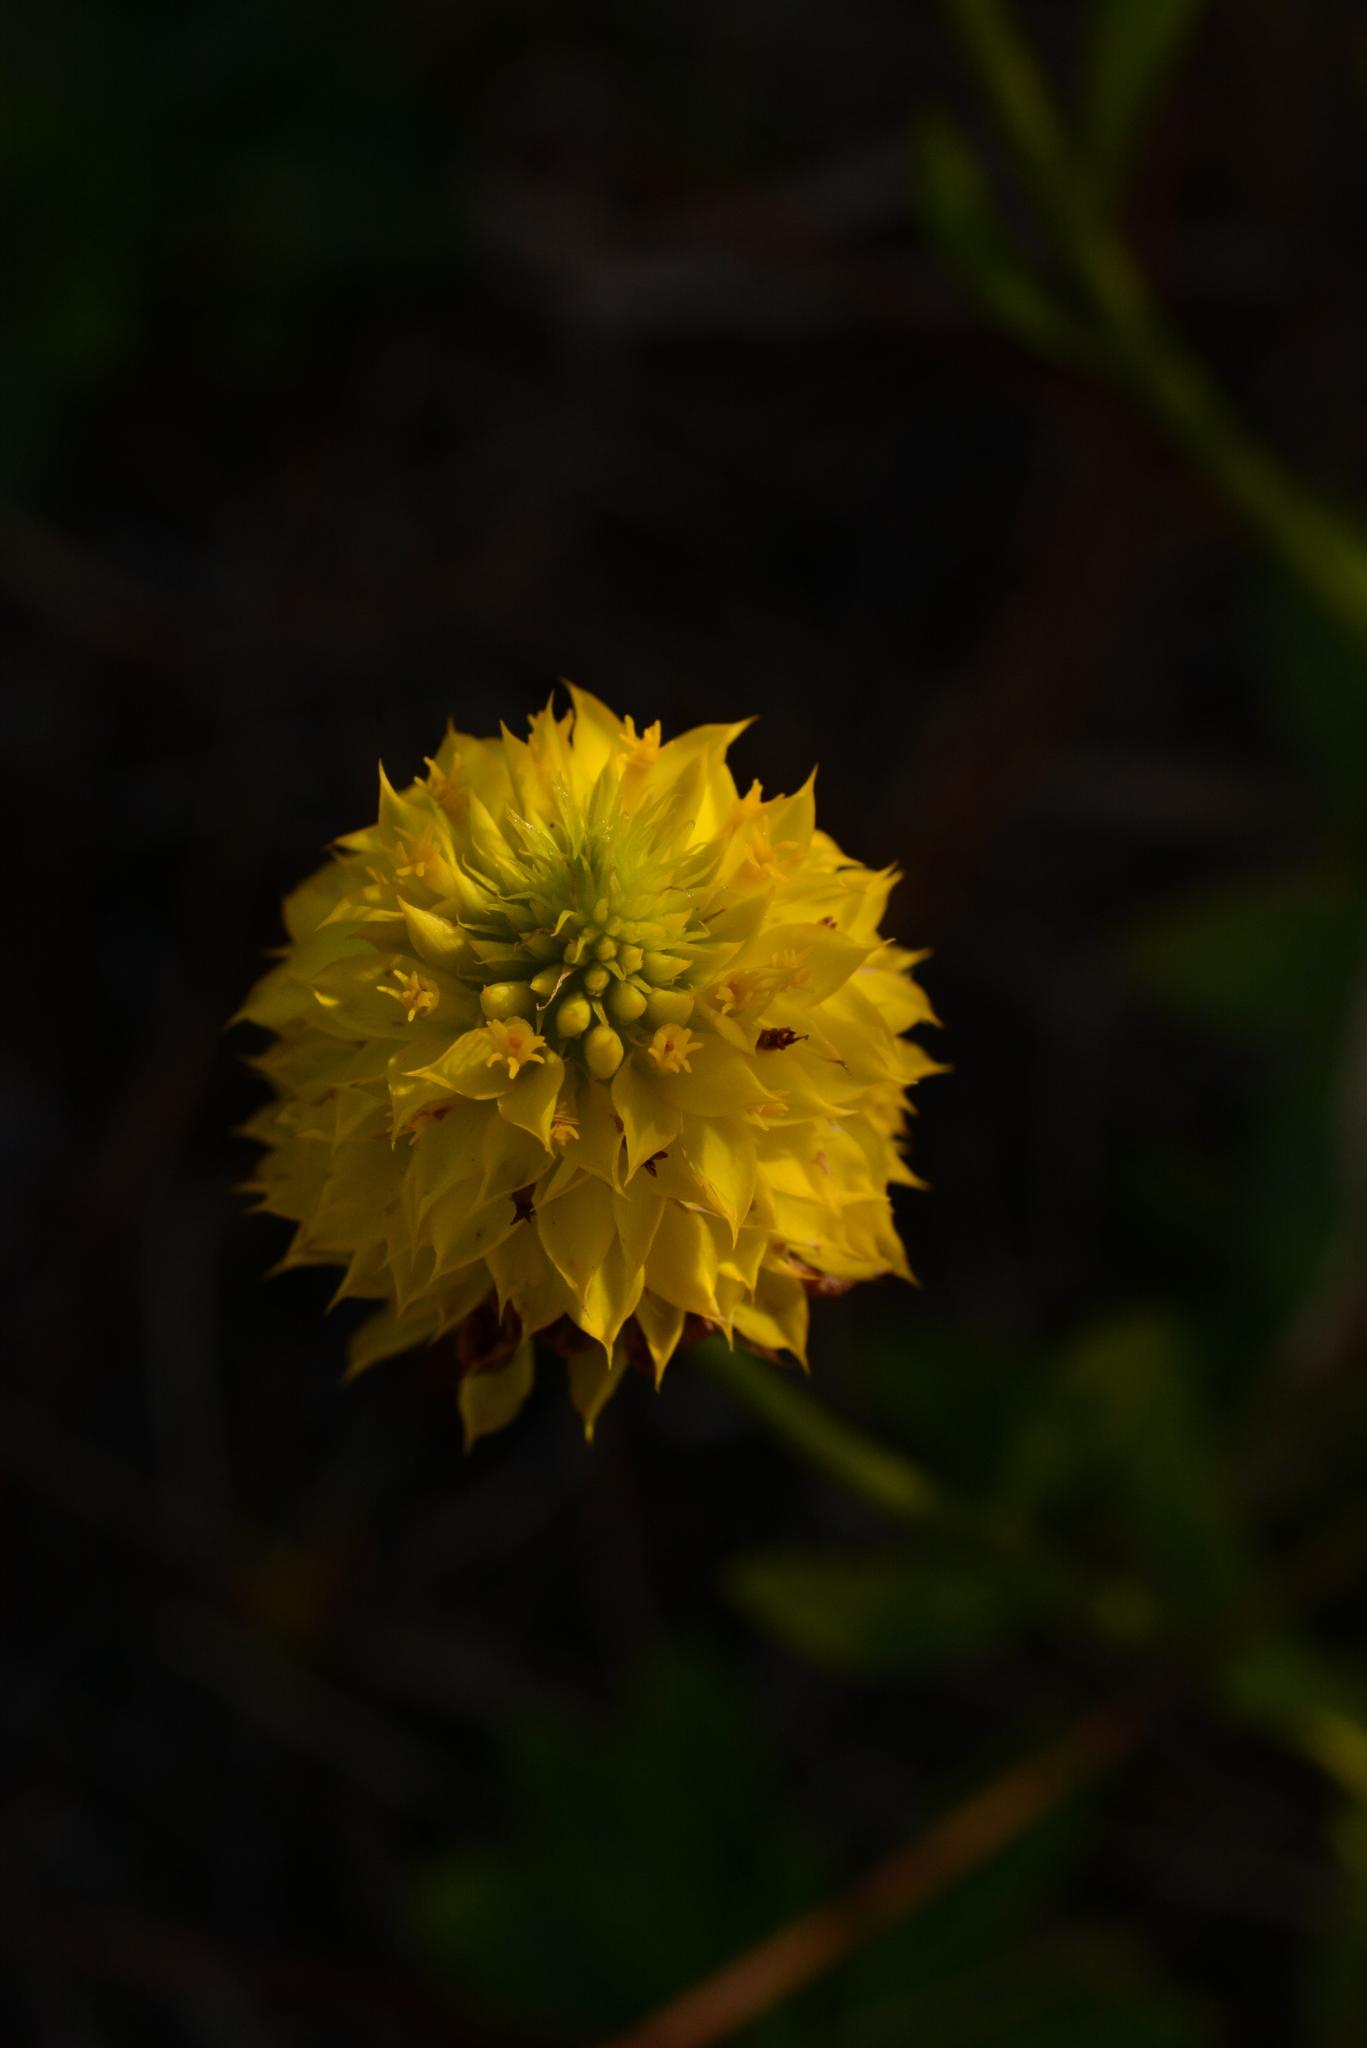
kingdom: Plantae
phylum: Tracheophyta
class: Magnoliopsida
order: Fabales
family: Polygalaceae
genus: Polygala
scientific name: Polygala rugelii
